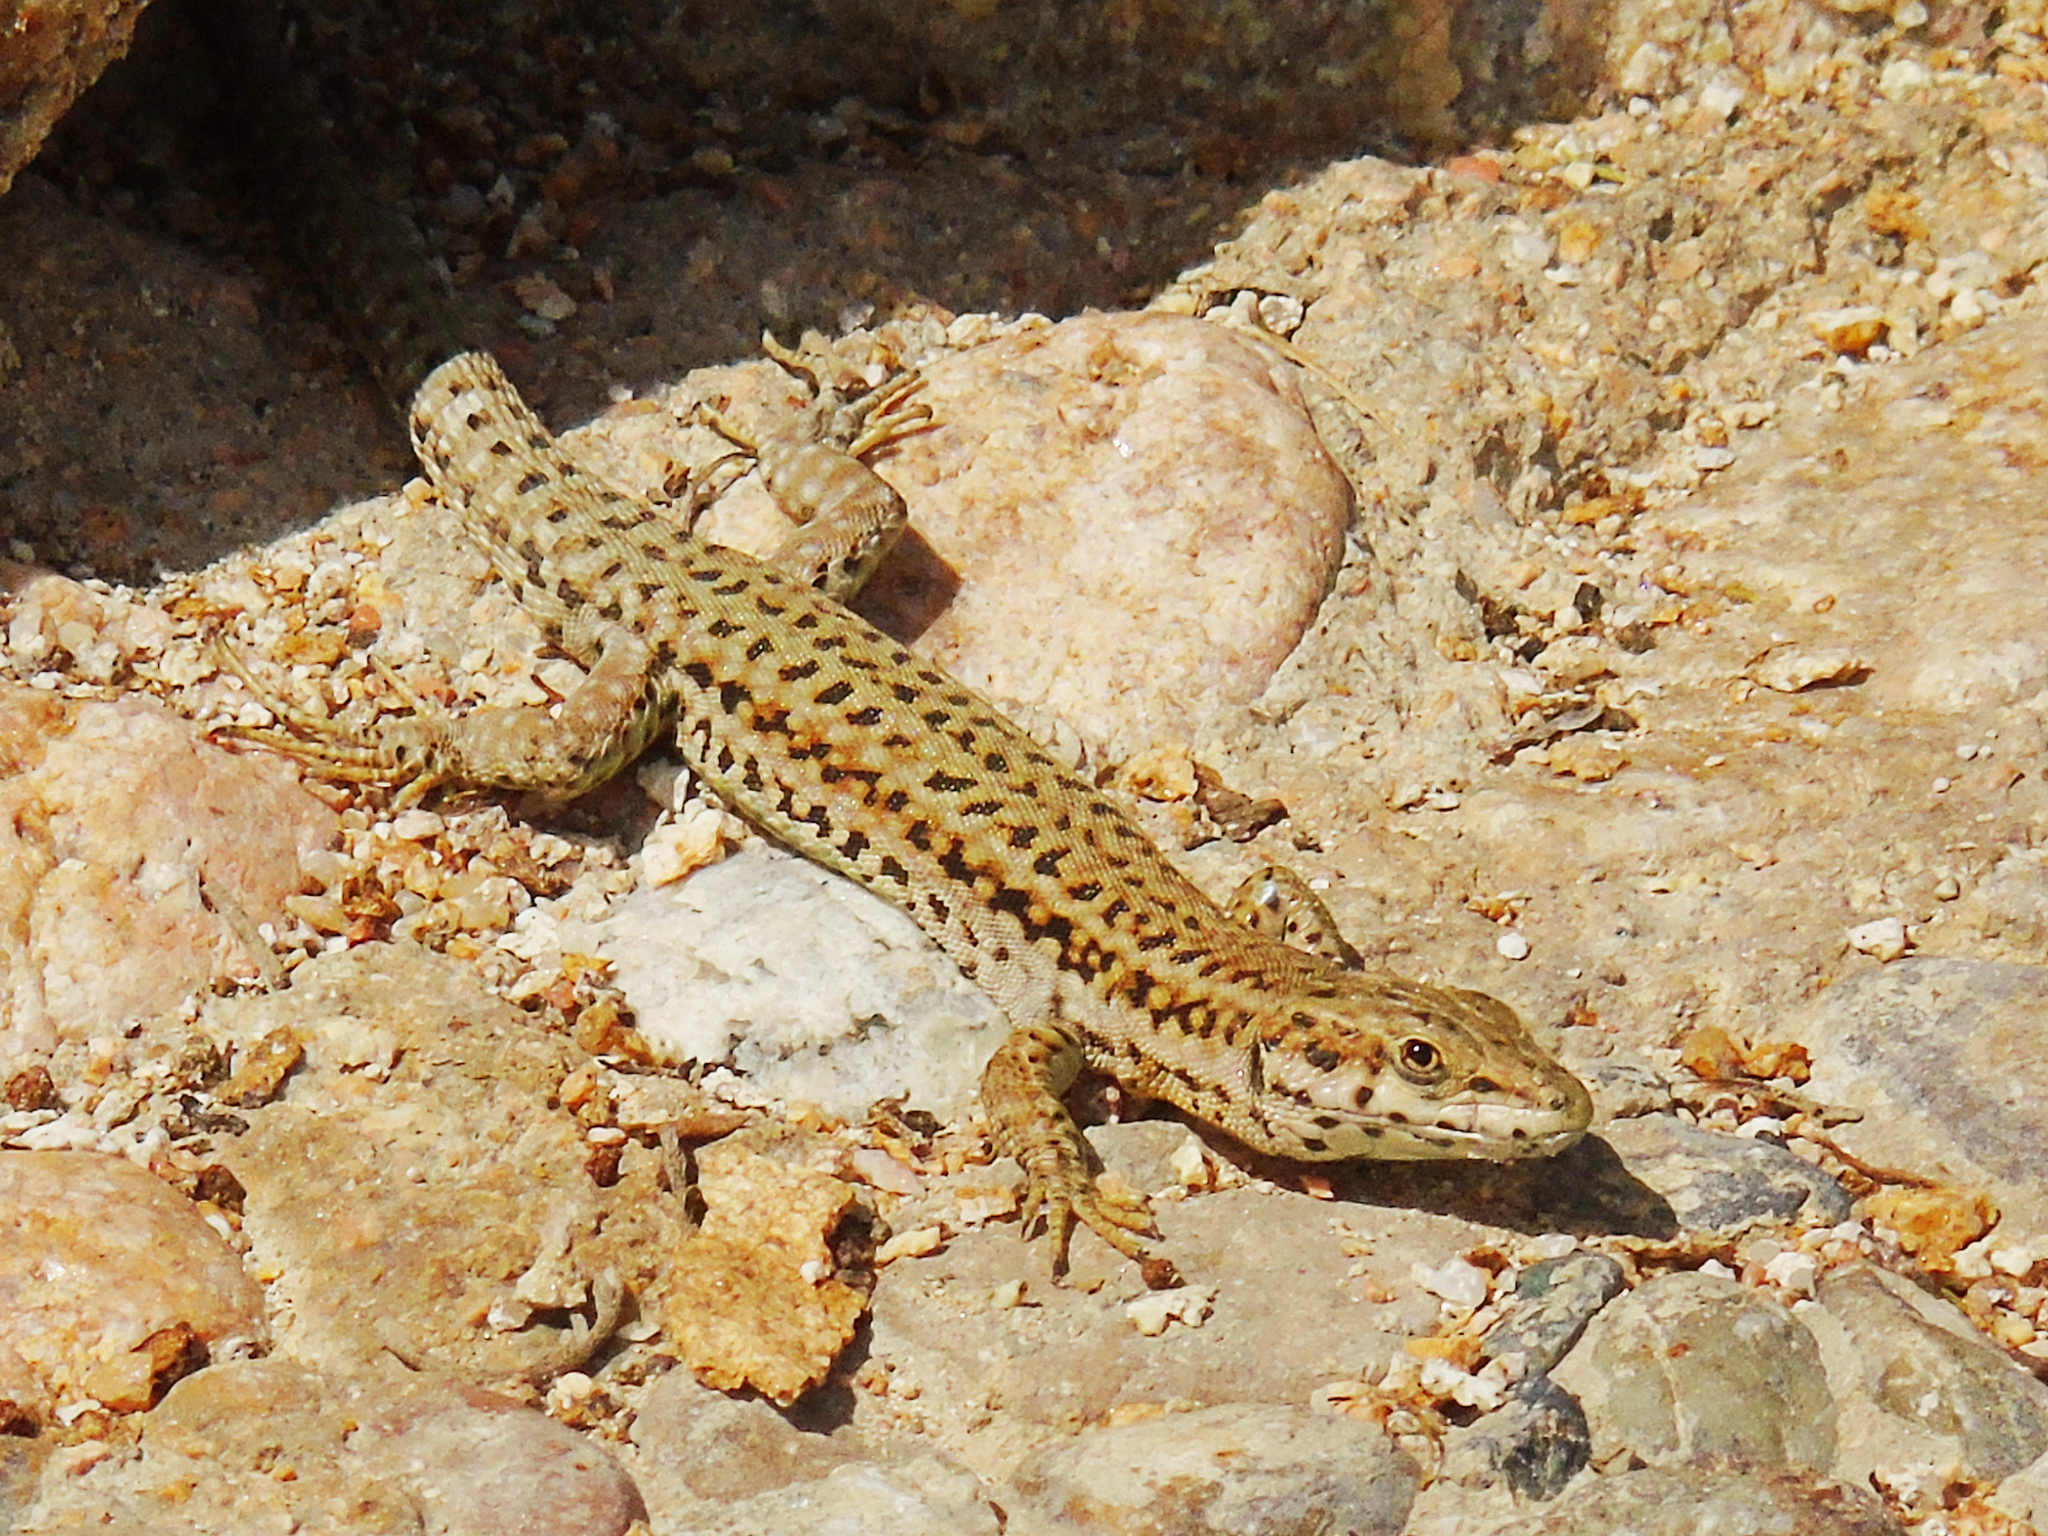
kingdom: Animalia
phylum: Chordata
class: Squamata
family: Lacertidae
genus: Podarcis
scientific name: Podarcis liolepis
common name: Catalonian wall lizard
